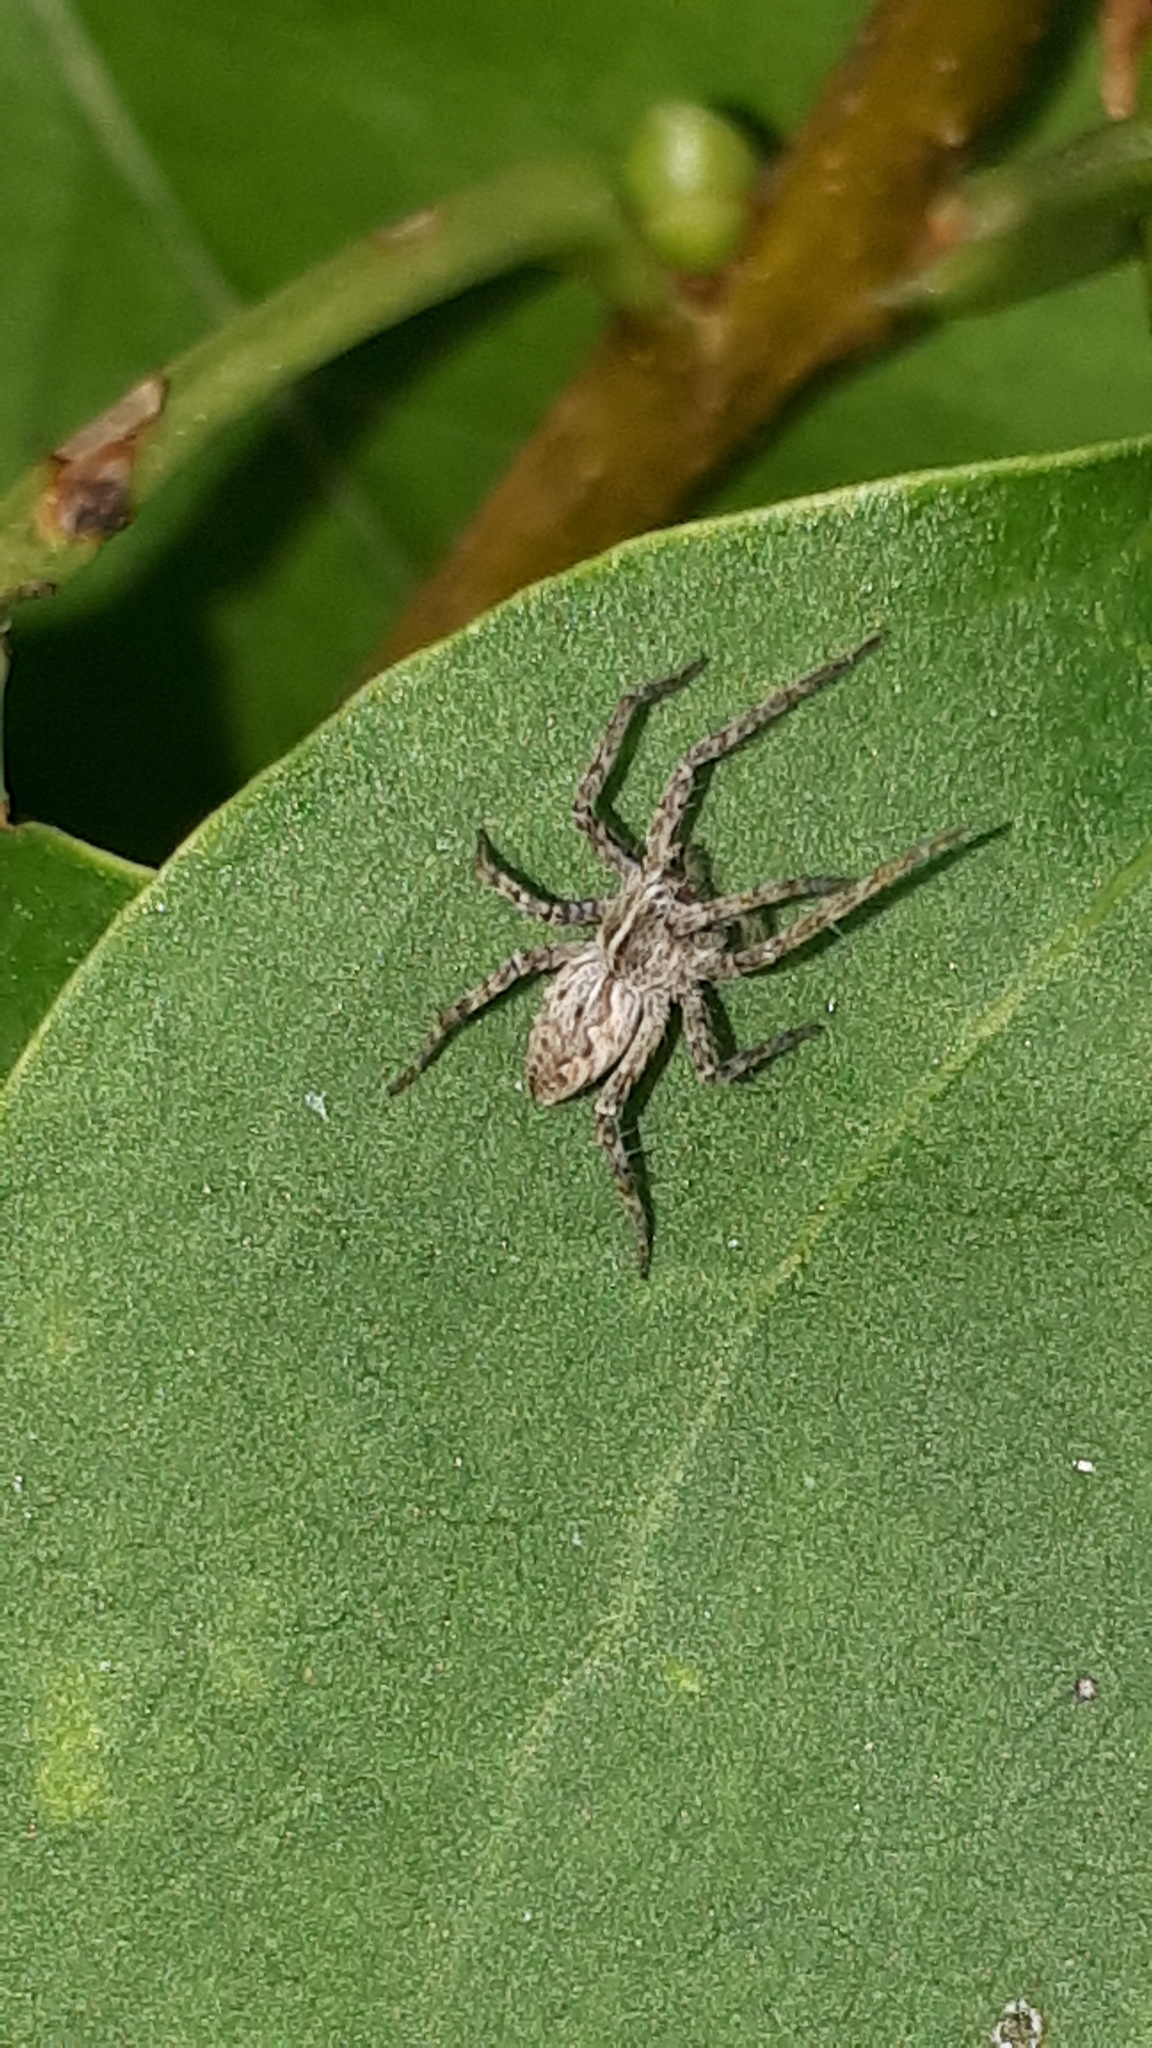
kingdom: Animalia
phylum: Arthropoda
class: Arachnida
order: Araneae
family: Pisauridae
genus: Pisaura
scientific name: Pisaura mirabilis
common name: Tent spider
